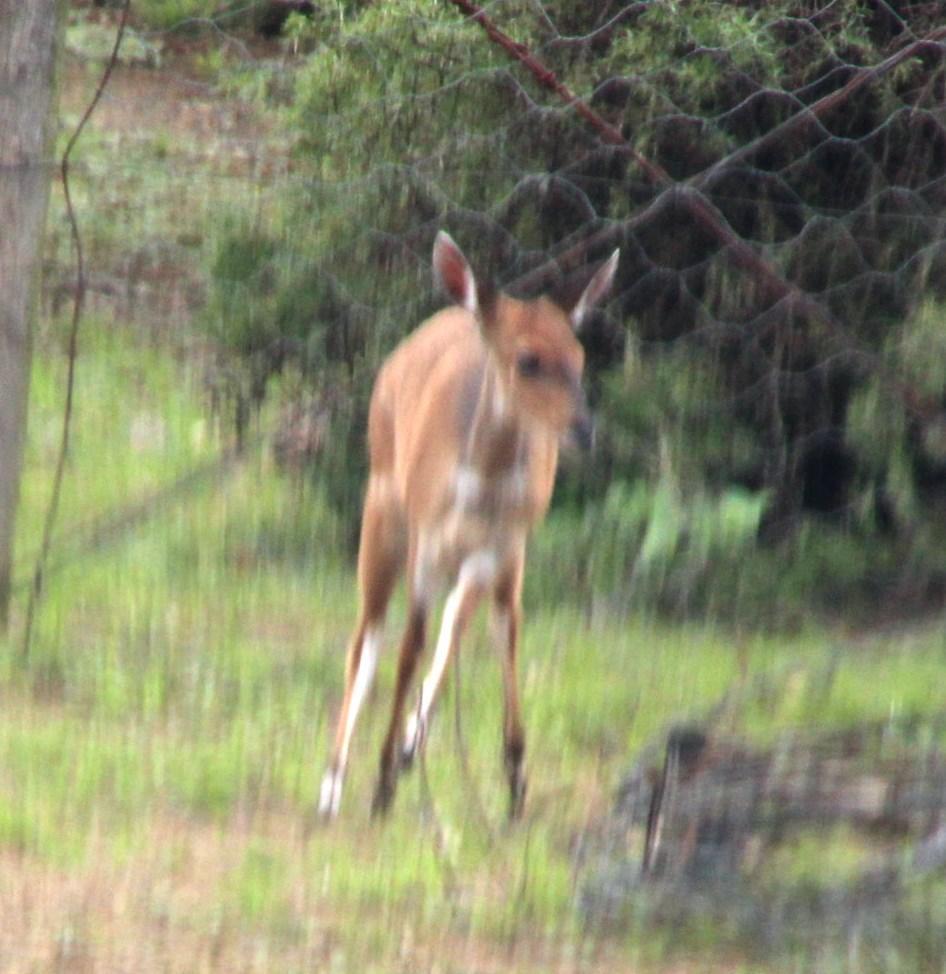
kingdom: Animalia
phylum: Chordata
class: Mammalia
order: Artiodactyla
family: Bovidae
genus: Tragelaphus
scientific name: Tragelaphus scriptus
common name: Bushbuck
